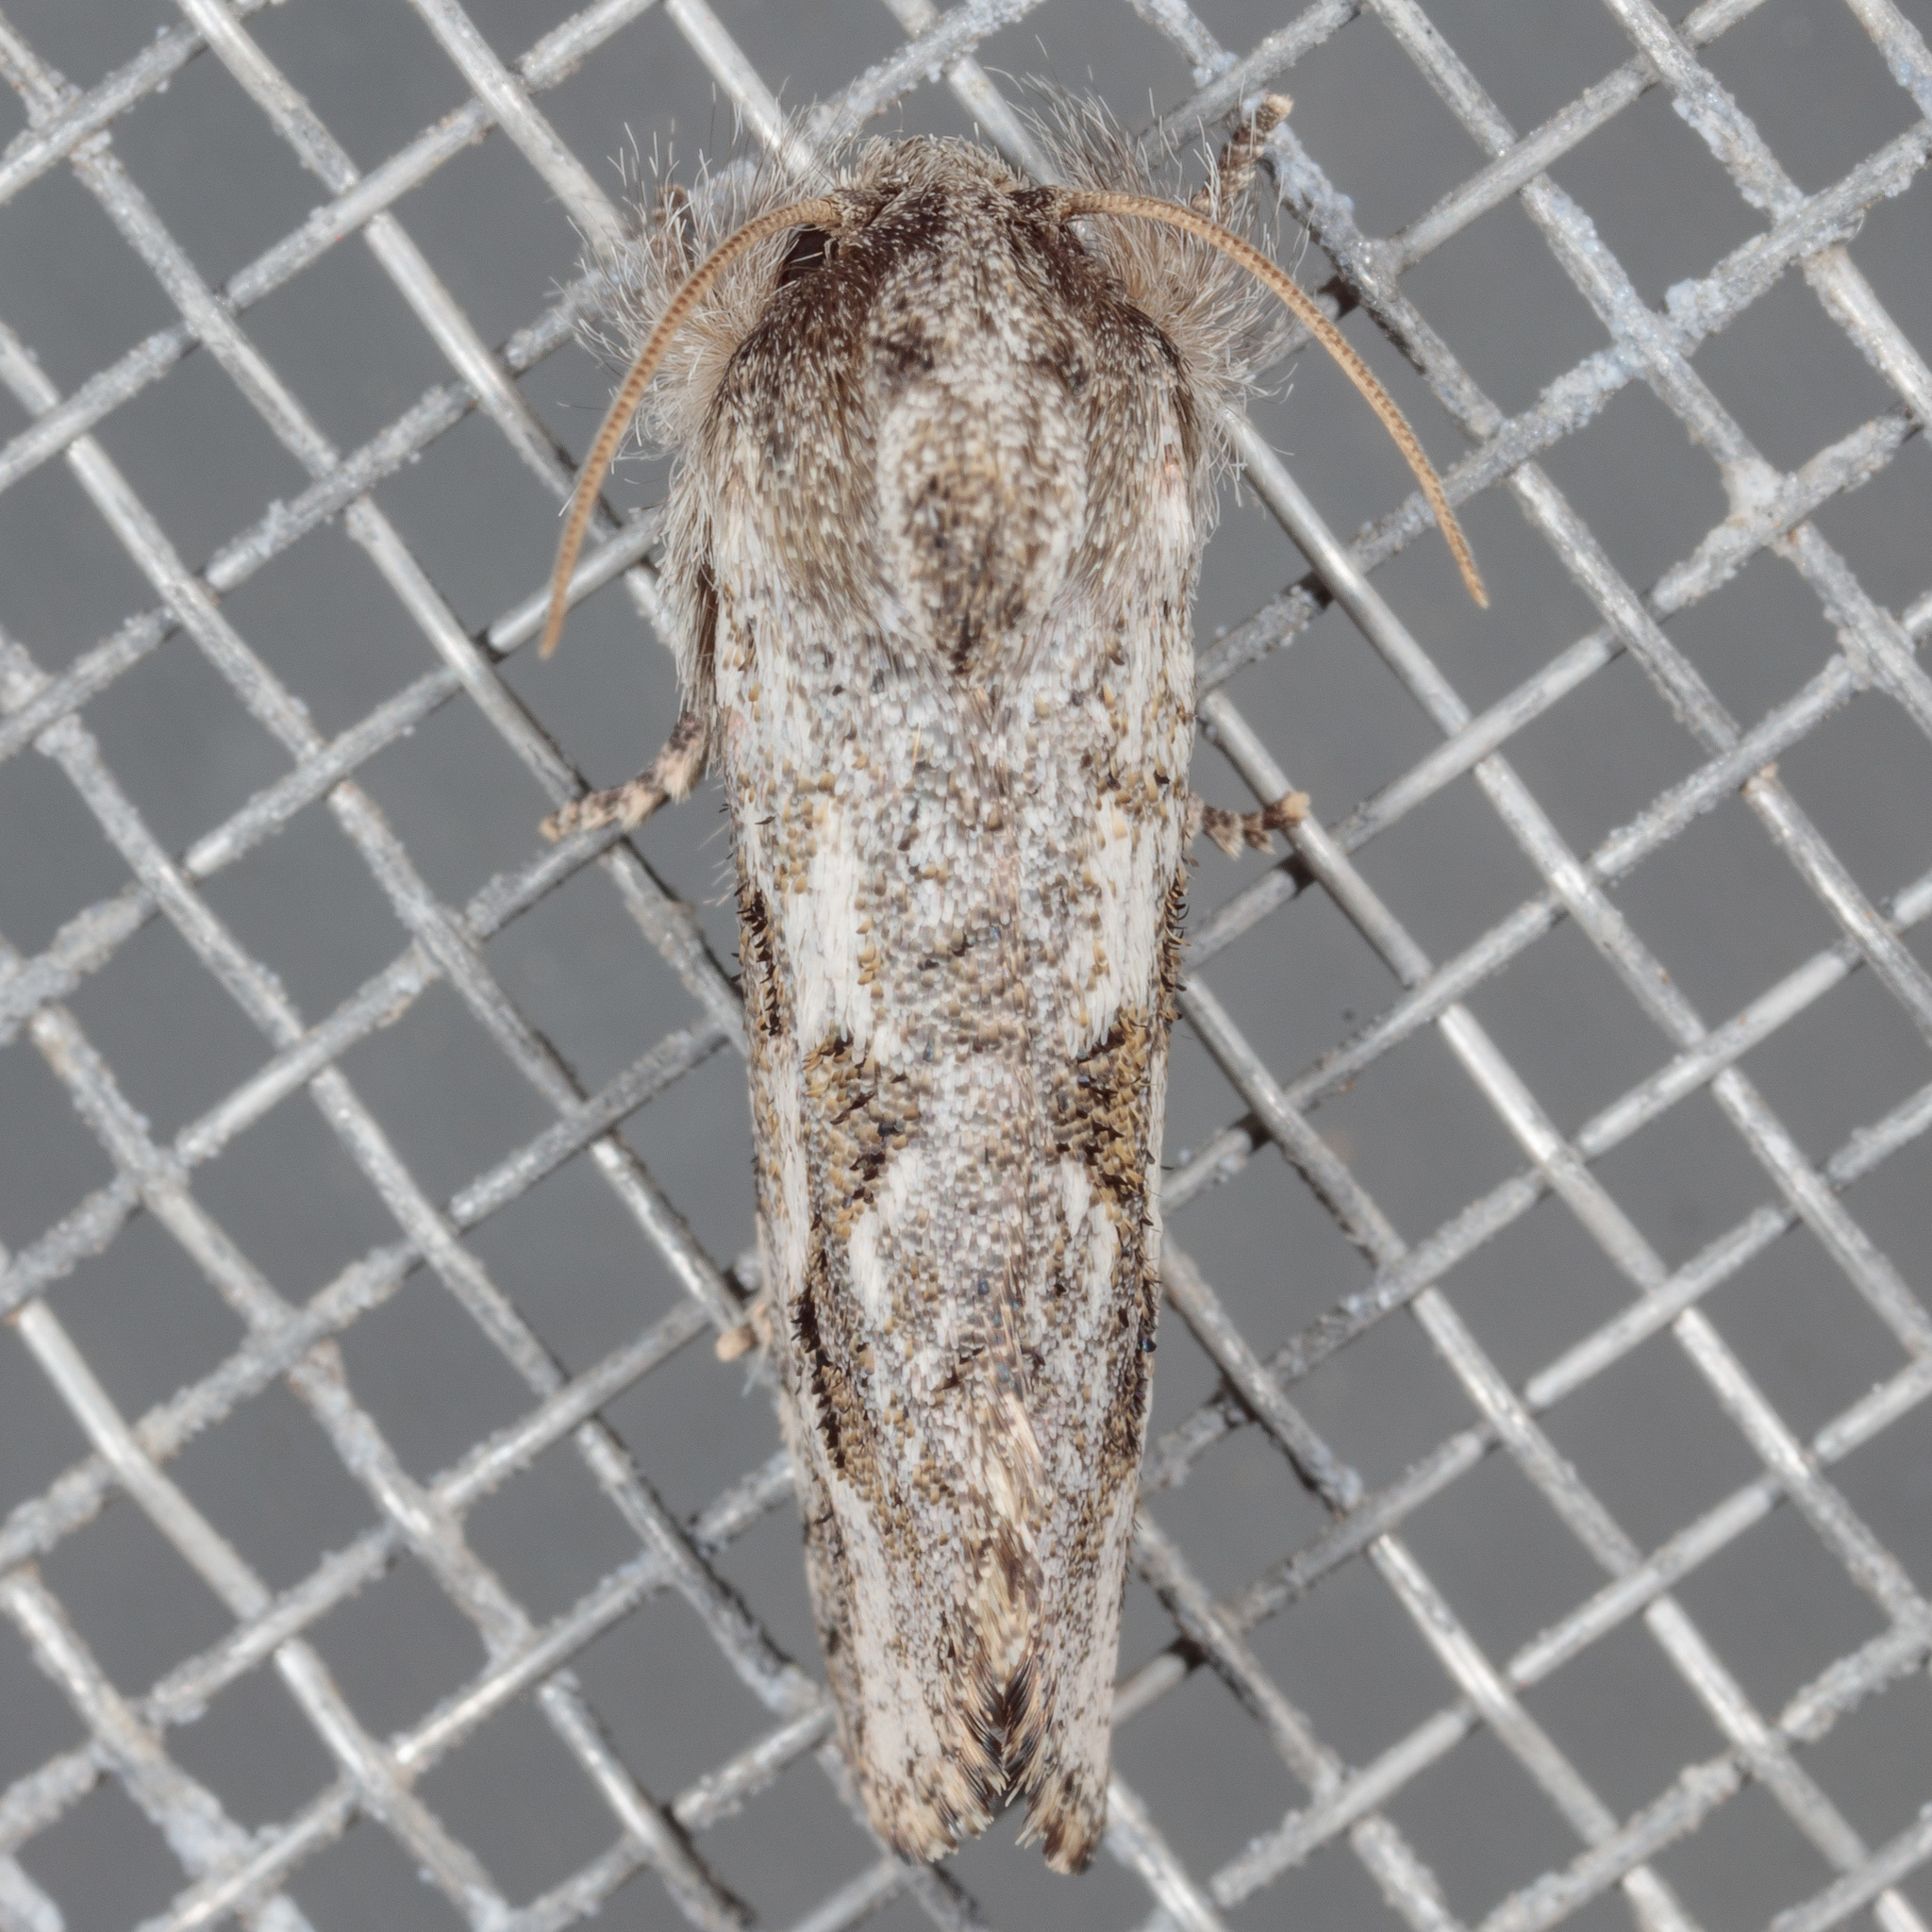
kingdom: Animalia
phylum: Arthropoda
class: Insecta
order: Lepidoptera
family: Tineidae
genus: Acrolophus
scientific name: Acrolophus griseus
